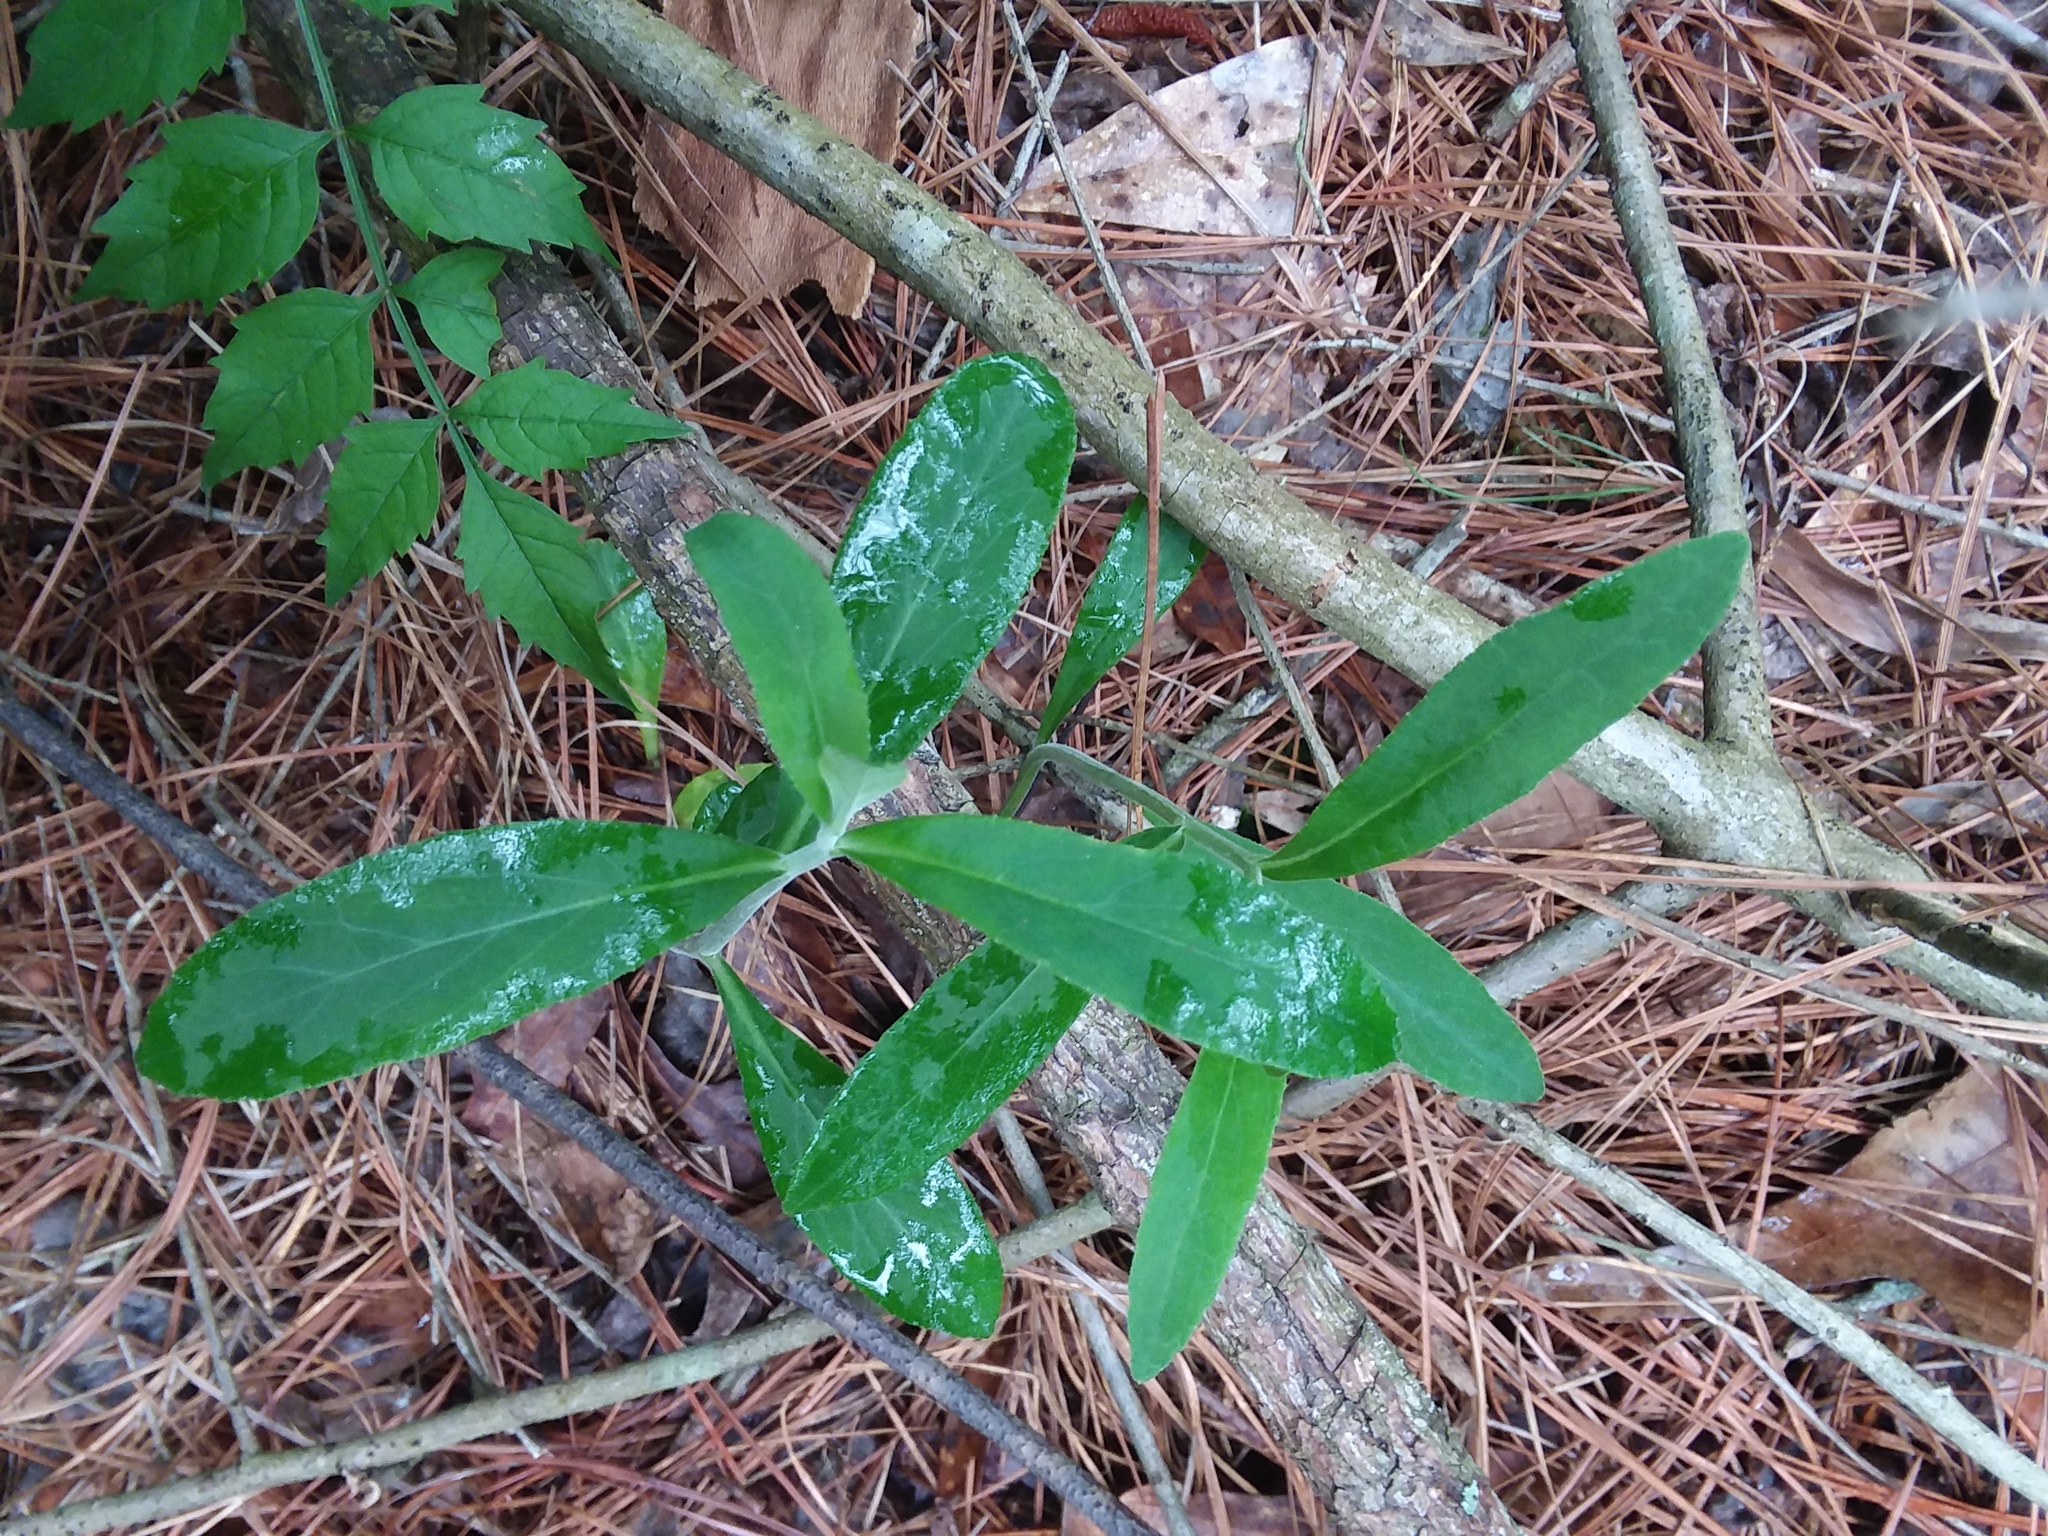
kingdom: Plantae
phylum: Tracheophyta
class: Magnoliopsida
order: Asterales
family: Campanulaceae
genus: Lobelia
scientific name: Lobelia puberula
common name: Purple dewdrop
